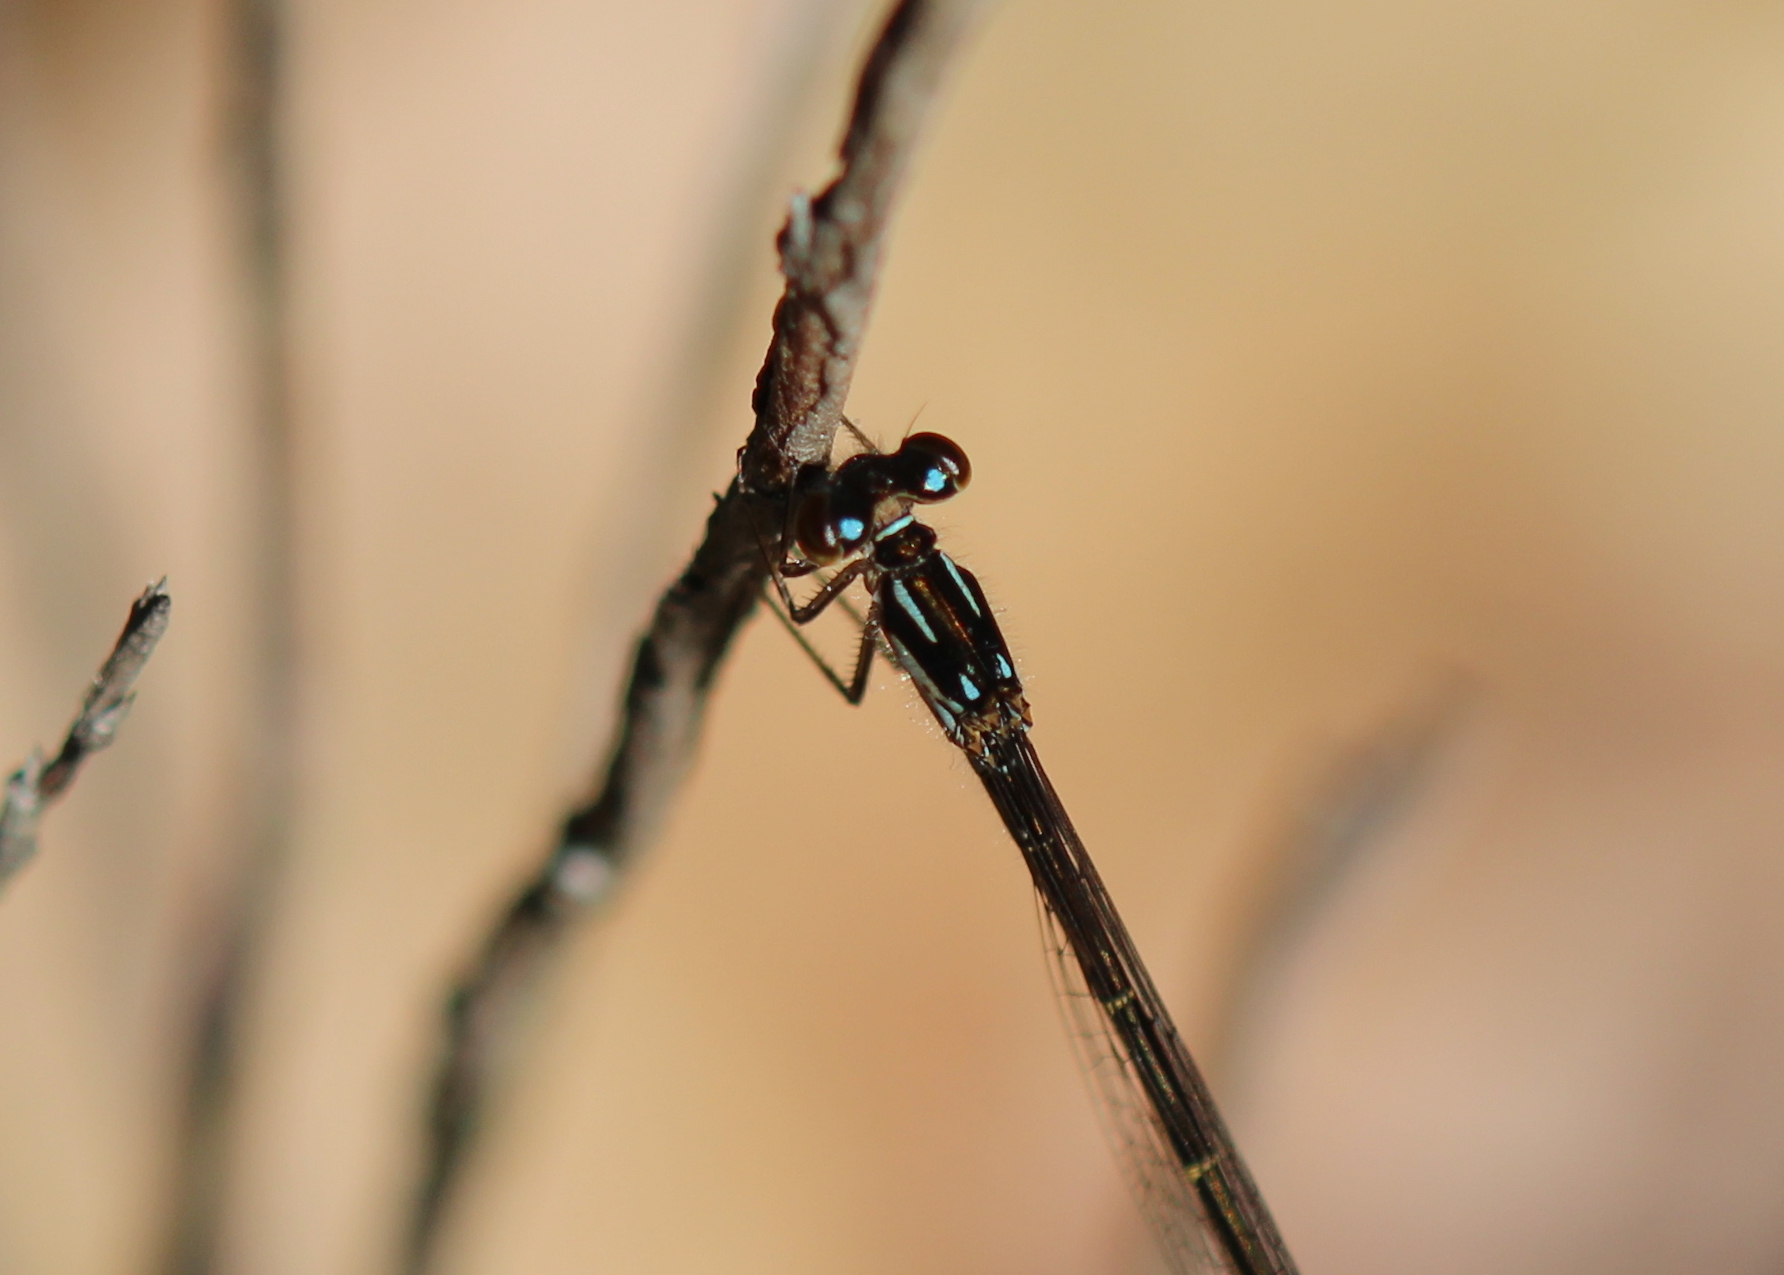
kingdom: Animalia
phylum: Arthropoda
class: Insecta
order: Odonata
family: Coenagrionidae
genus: Ischnura
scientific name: Ischnura posita
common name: Fragile forktail
